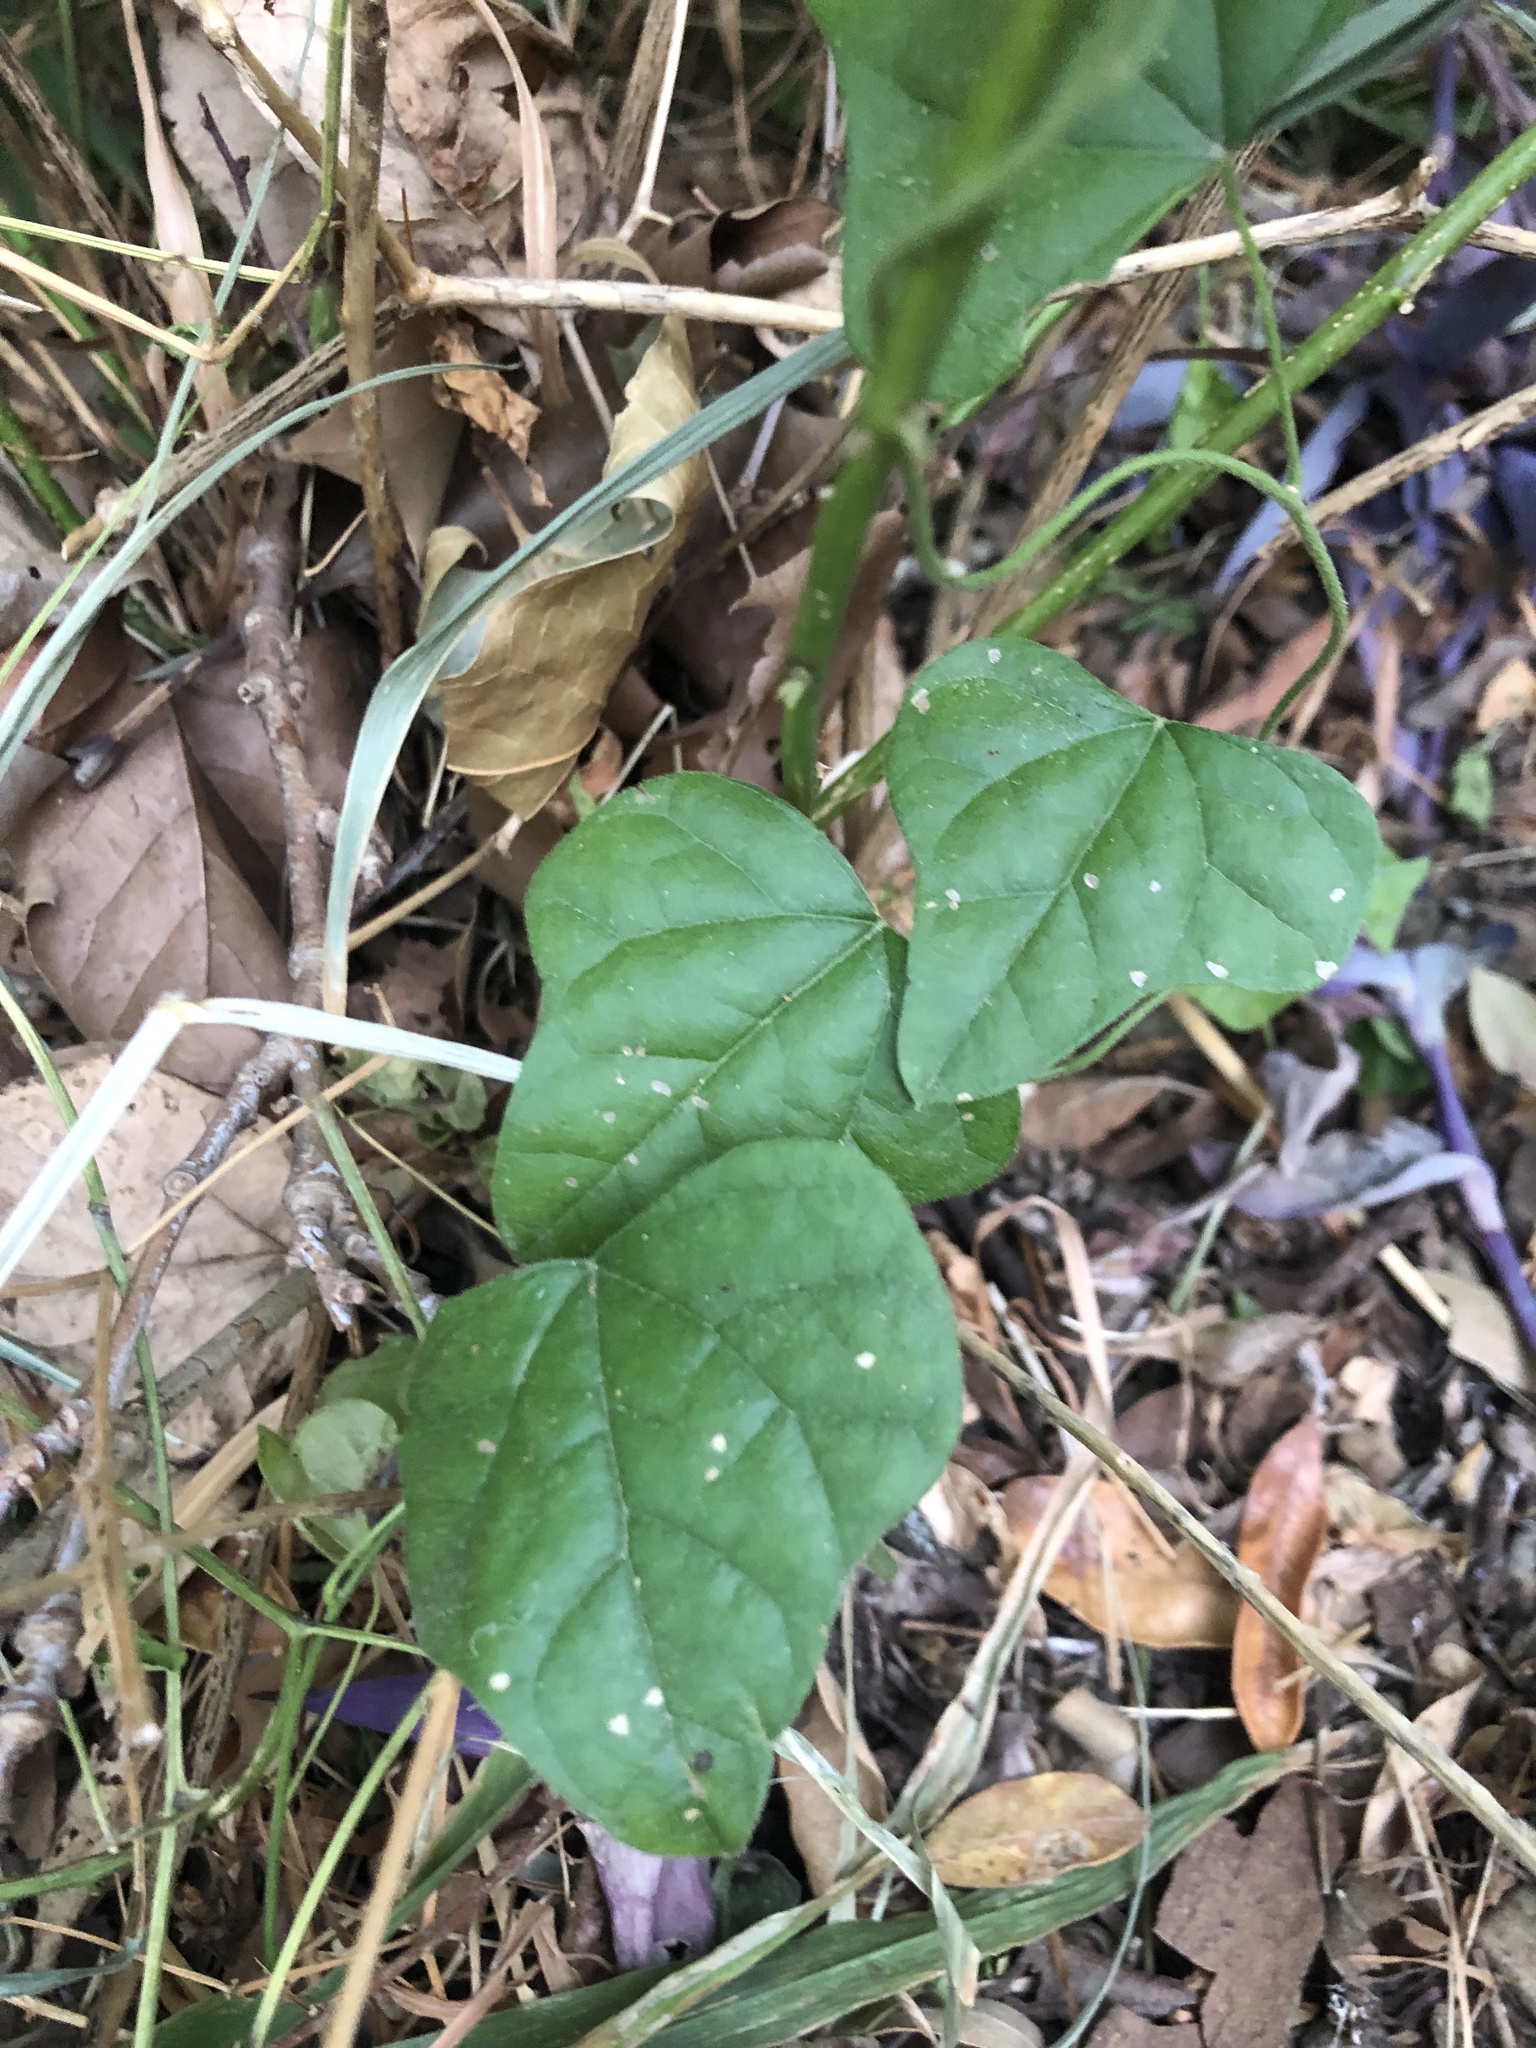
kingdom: Plantae
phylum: Tracheophyta
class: Magnoliopsida
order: Ranunculales
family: Menispermaceae
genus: Cocculus
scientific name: Cocculus carolinus
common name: Carolina moonseed
